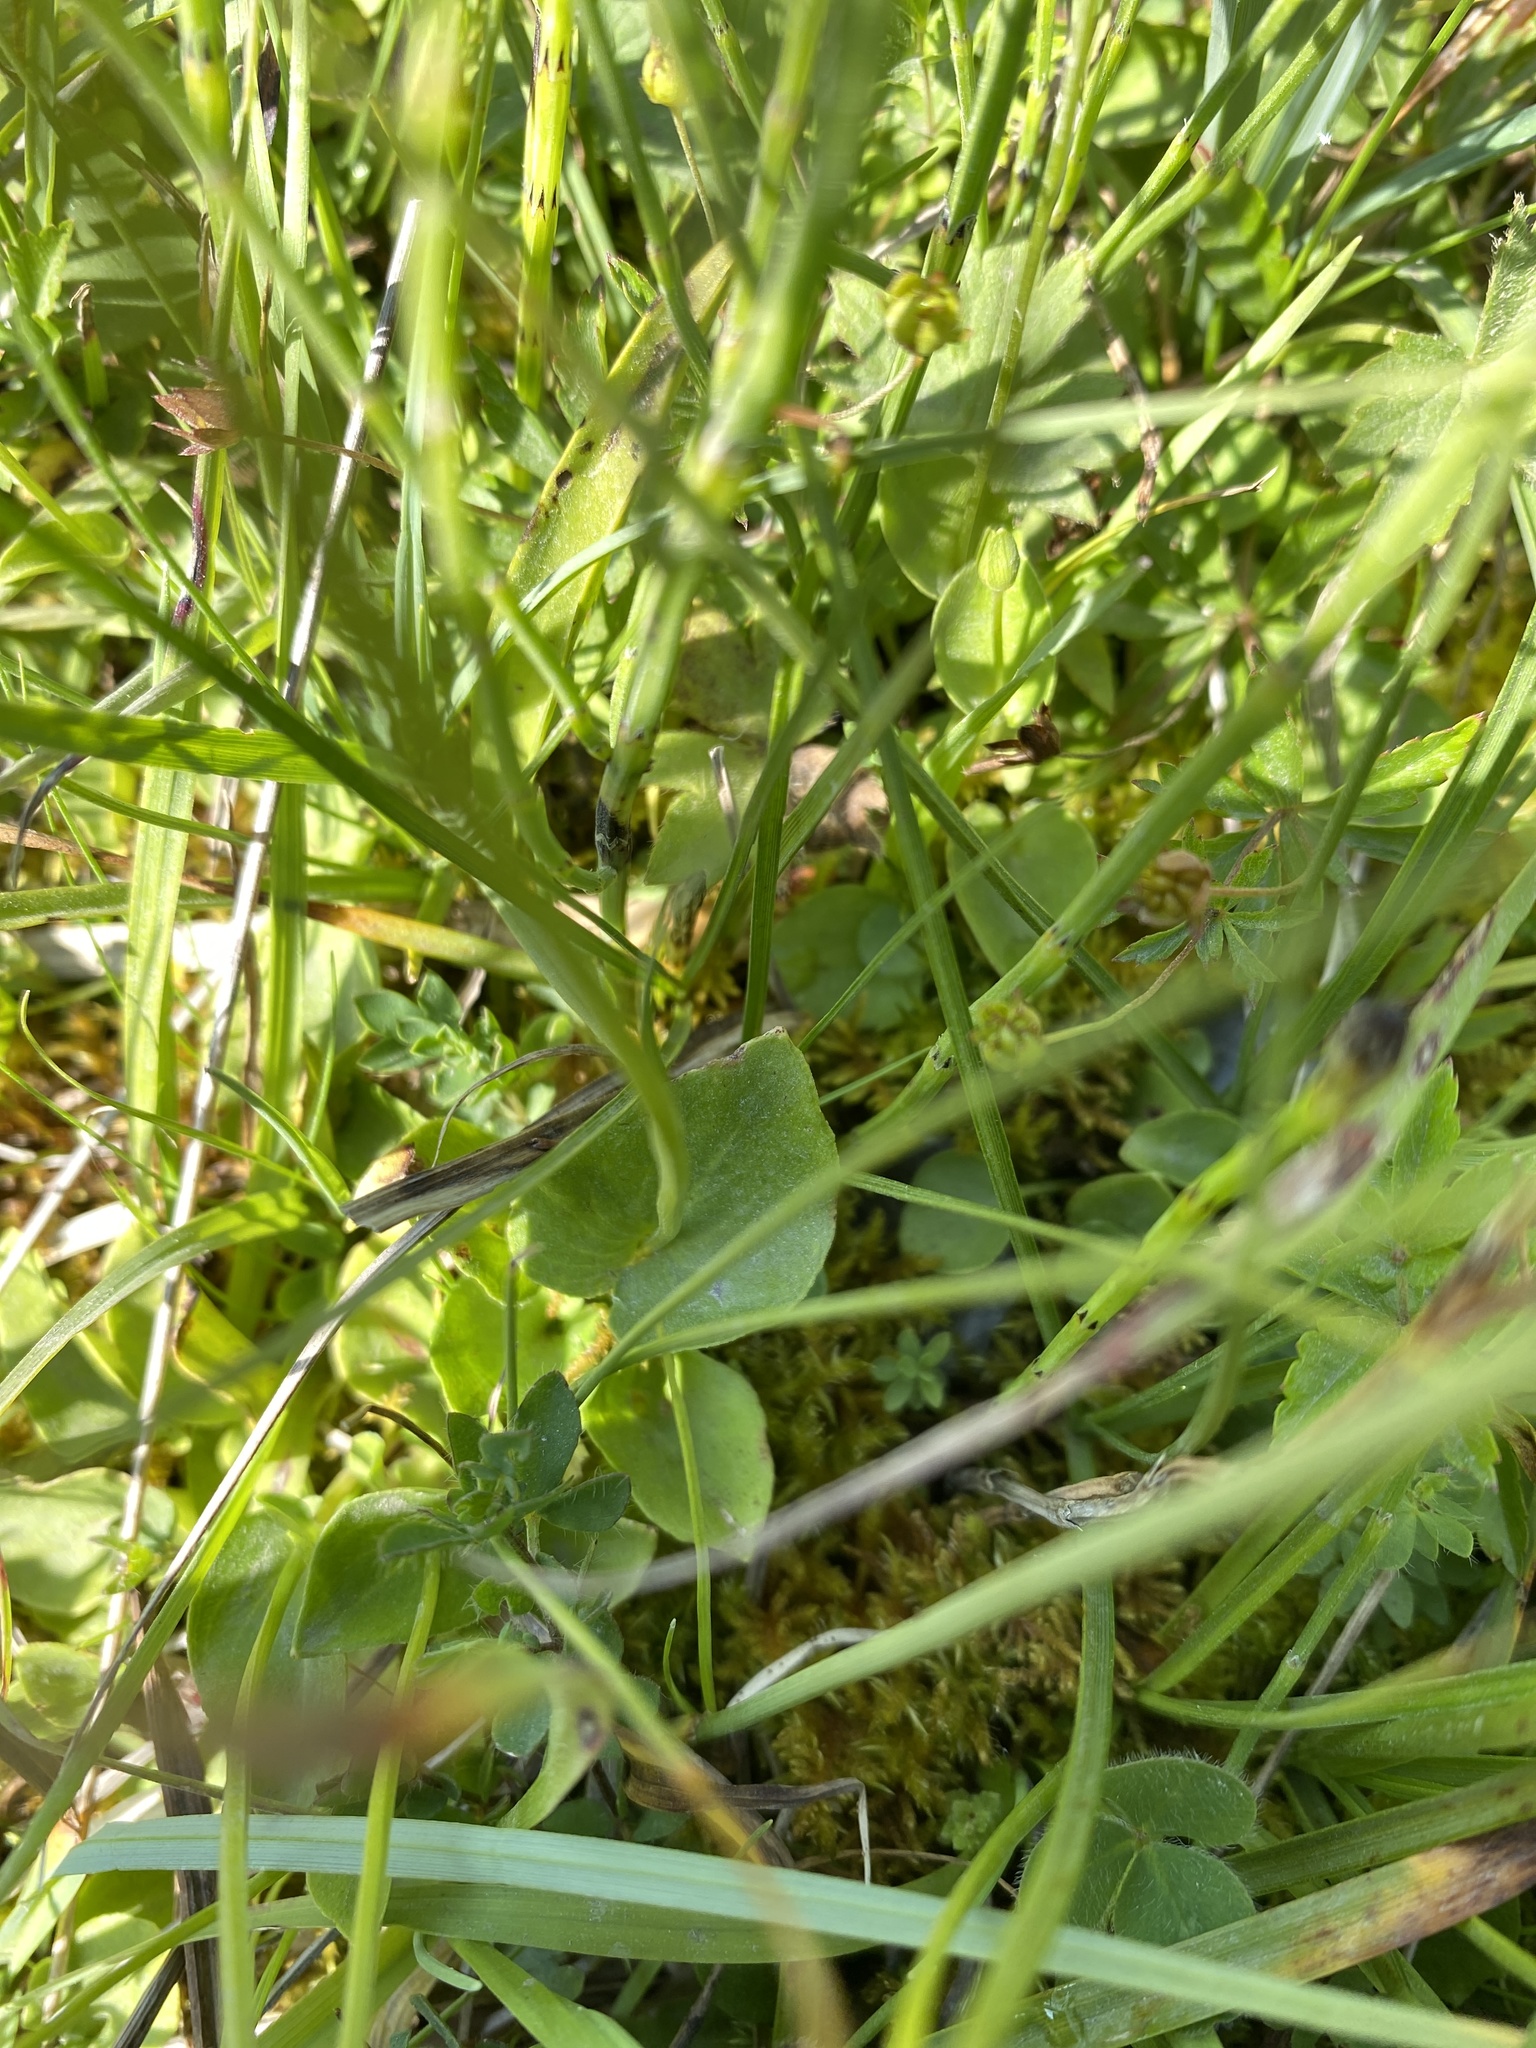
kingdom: Plantae
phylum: Tracheophyta
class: Magnoliopsida
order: Celastrales
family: Parnassiaceae
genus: Parnassia
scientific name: Parnassia palustris
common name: Grass-of-parnassus
